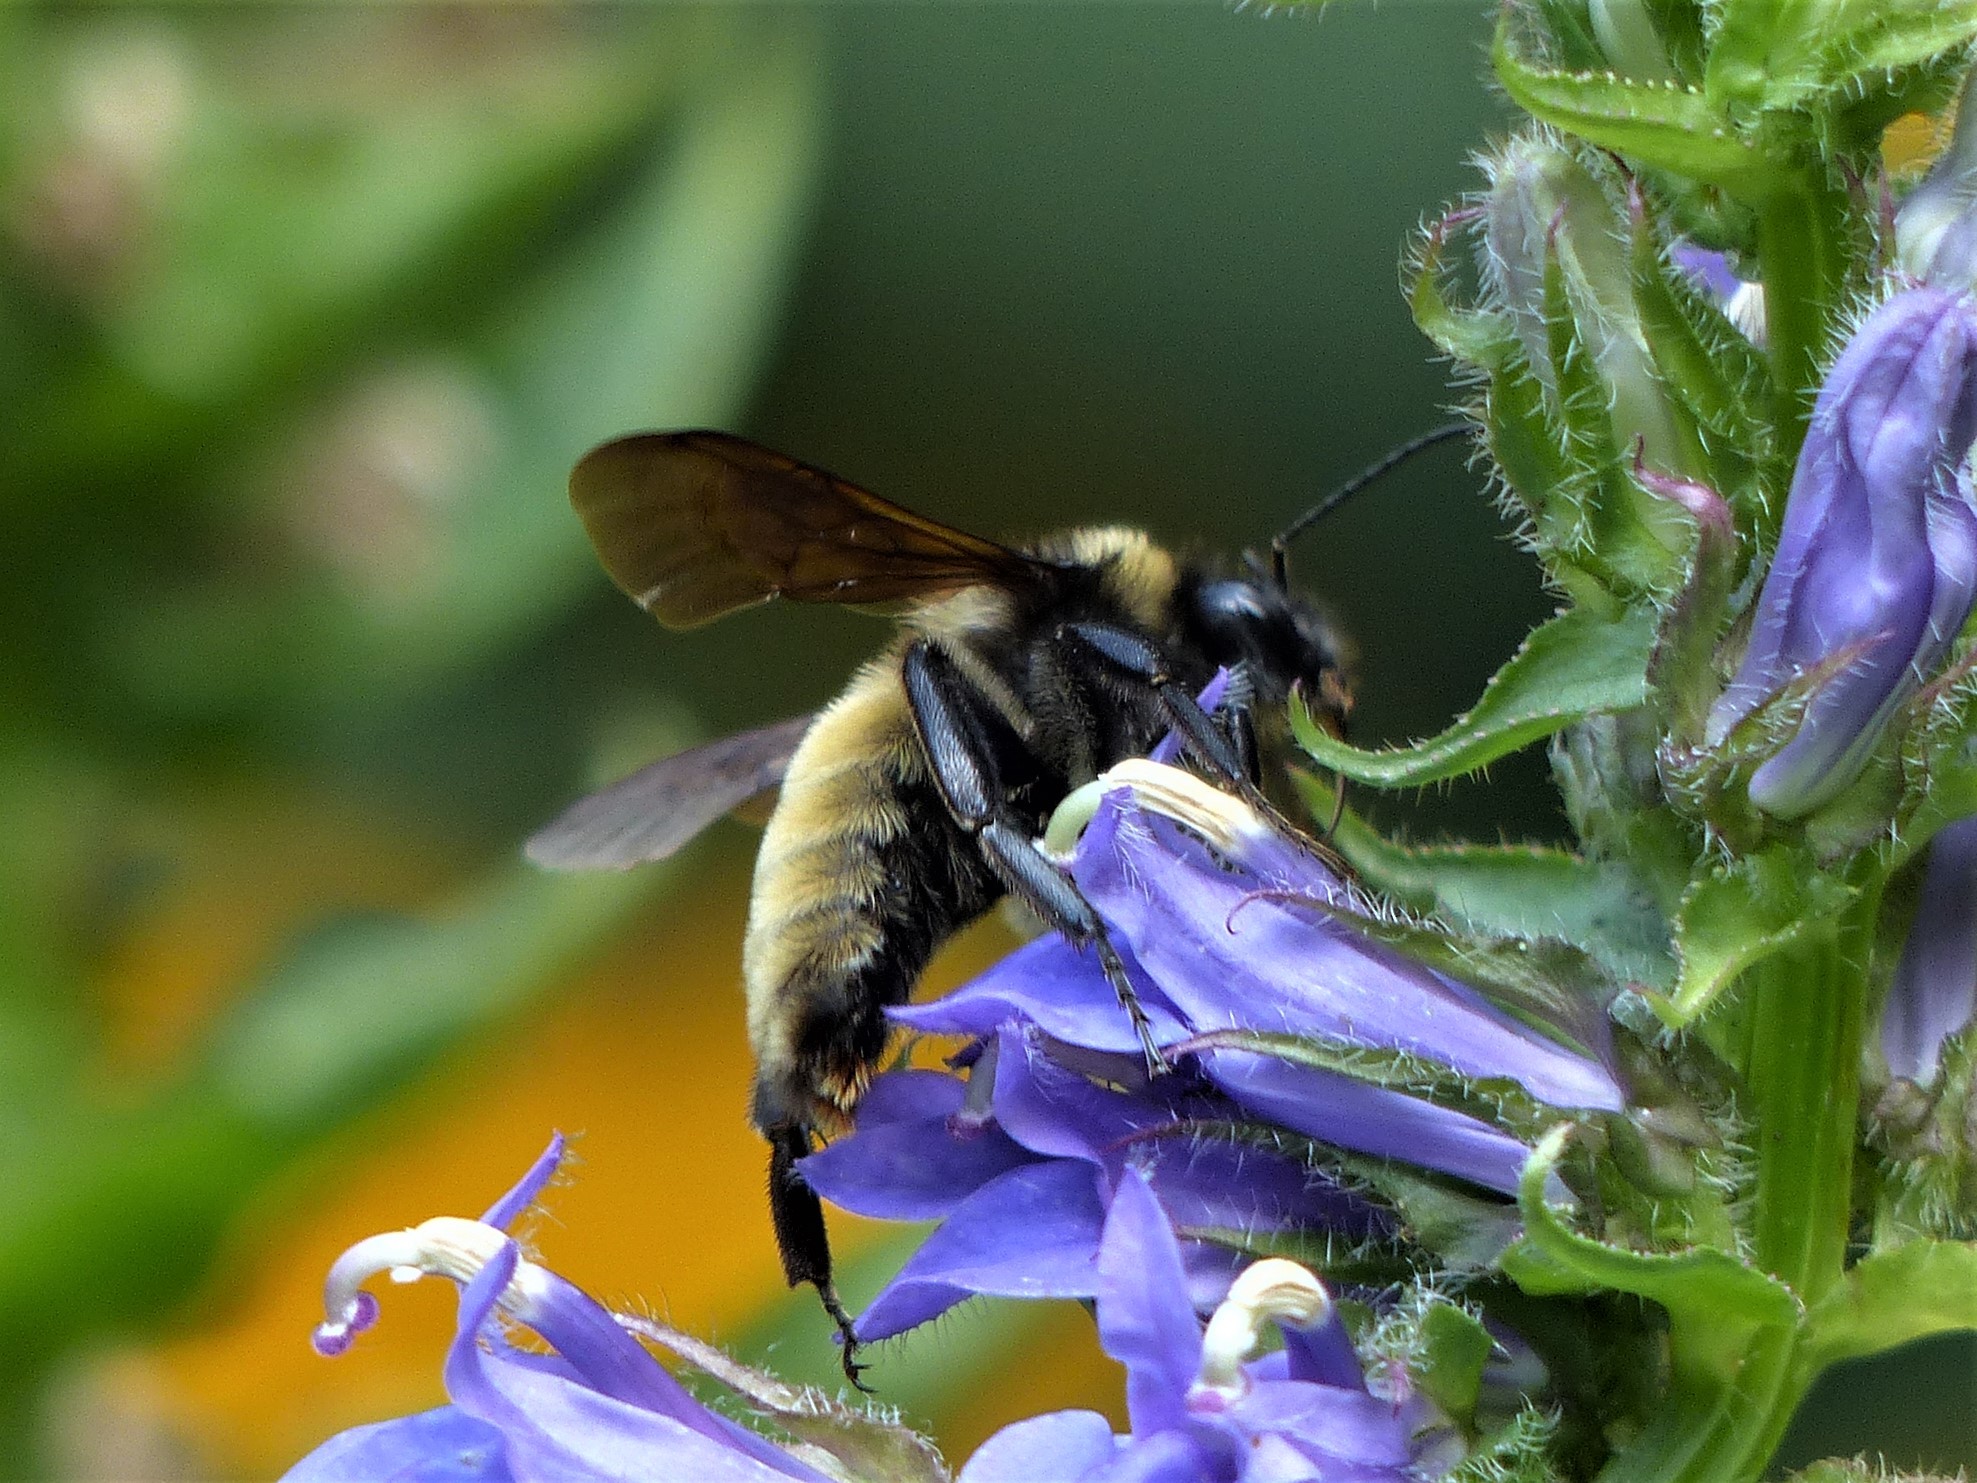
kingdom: Animalia
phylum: Arthropoda
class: Insecta
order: Hymenoptera
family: Apidae
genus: Bombus
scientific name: Bombus pensylvanicus
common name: Bumble bee
